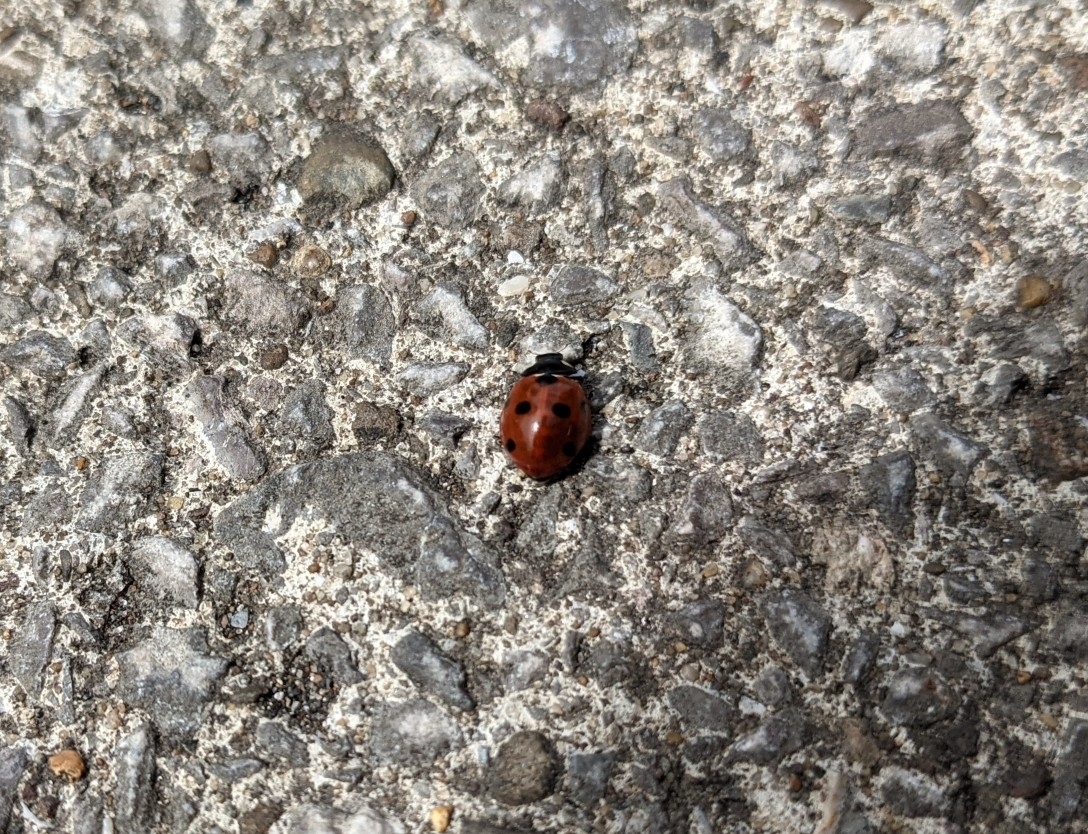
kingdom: Animalia
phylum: Arthropoda
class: Insecta
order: Coleoptera
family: Coccinellidae
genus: Coccinella
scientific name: Coccinella septempunctata
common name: Sevenspotted lady beetle
